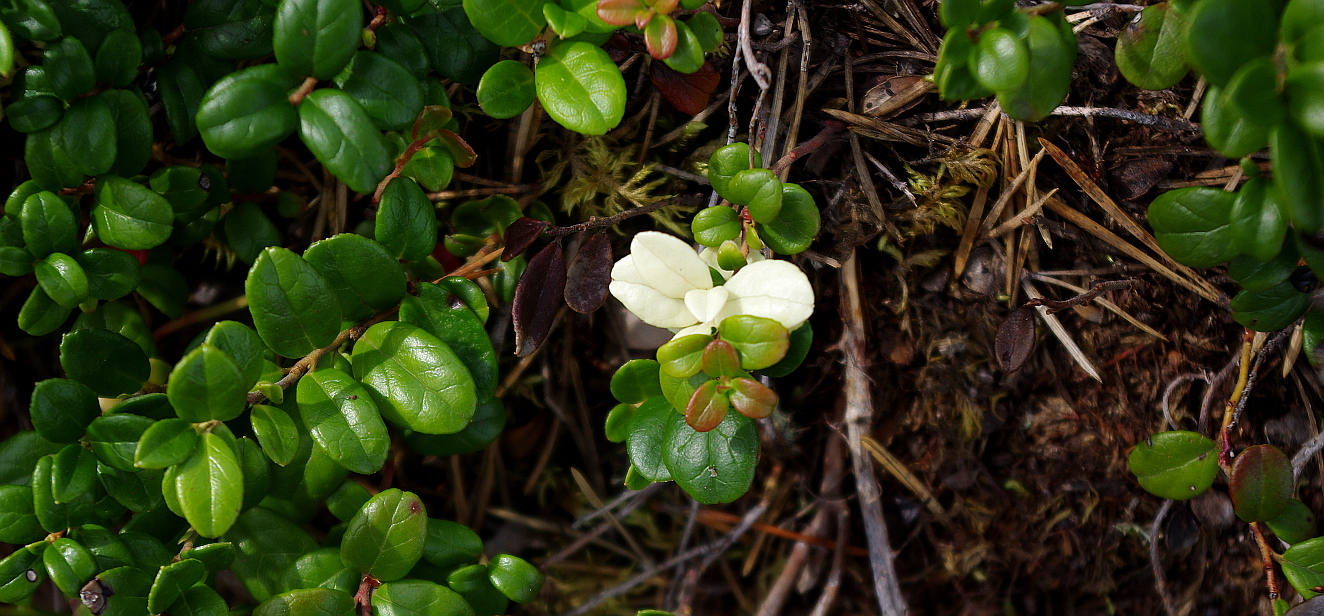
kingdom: Plantae
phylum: Tracheophyta
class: Magnoliopsida
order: Ericales
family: Ericaceae
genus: Vaccinium
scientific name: Vaccinium vitis-idaea
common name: Cowberry
